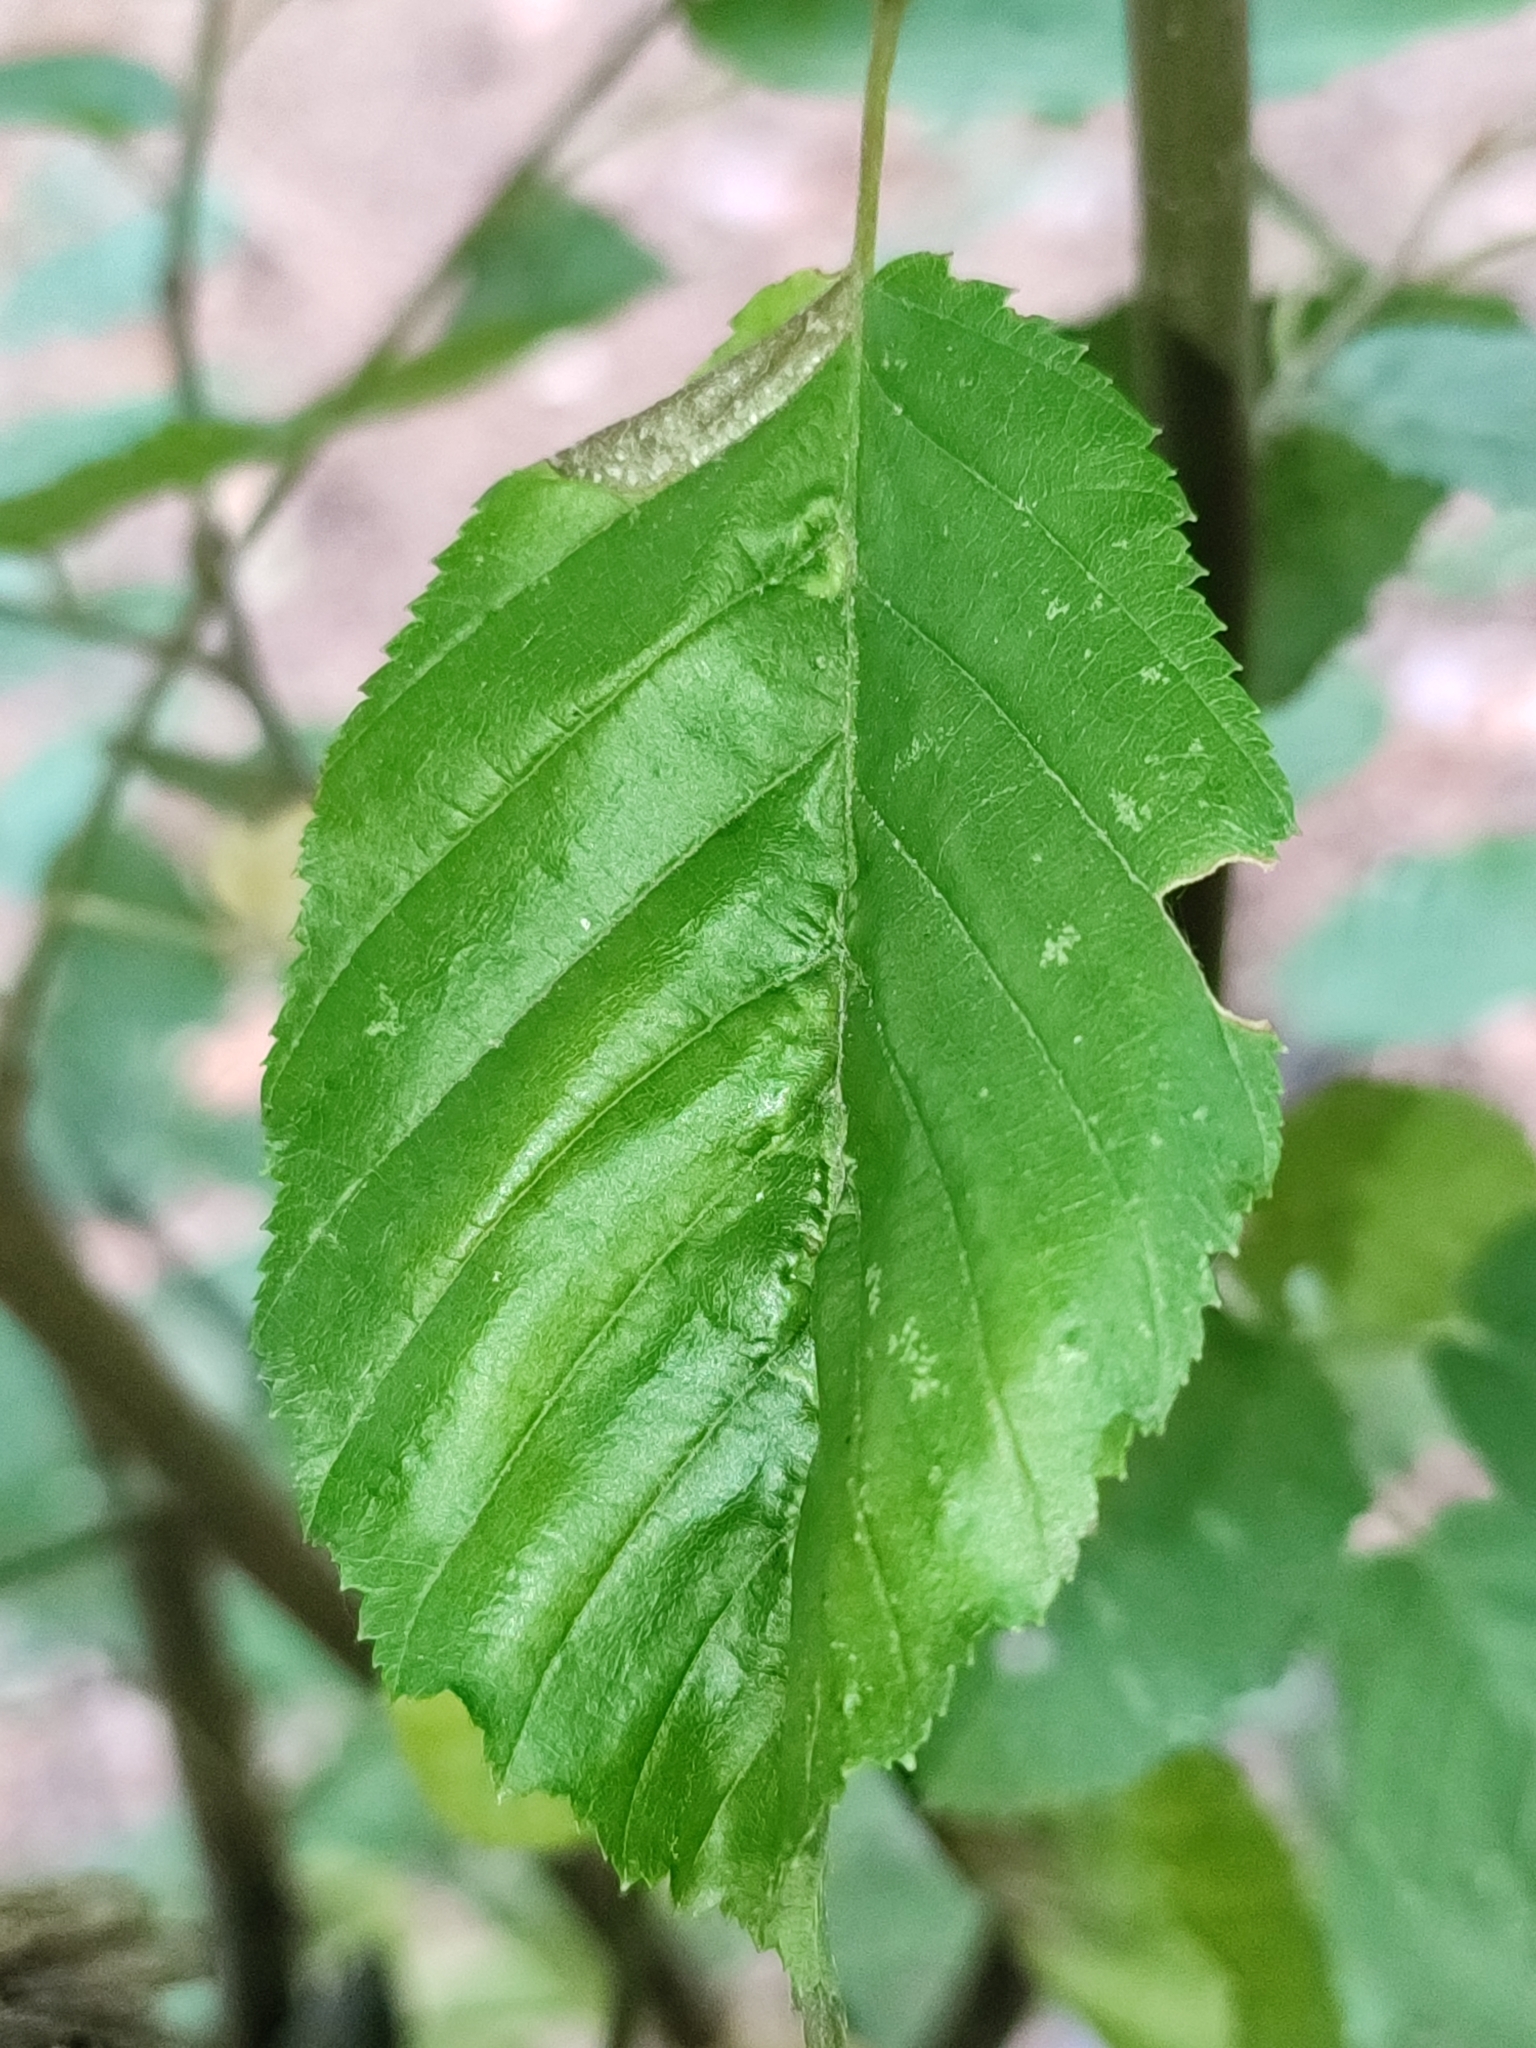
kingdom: Animalia
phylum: Arthropoda
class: Insecta
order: Diptera
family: Cecidomyiidae
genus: Zygiobia
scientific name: Zygiobia carpini
